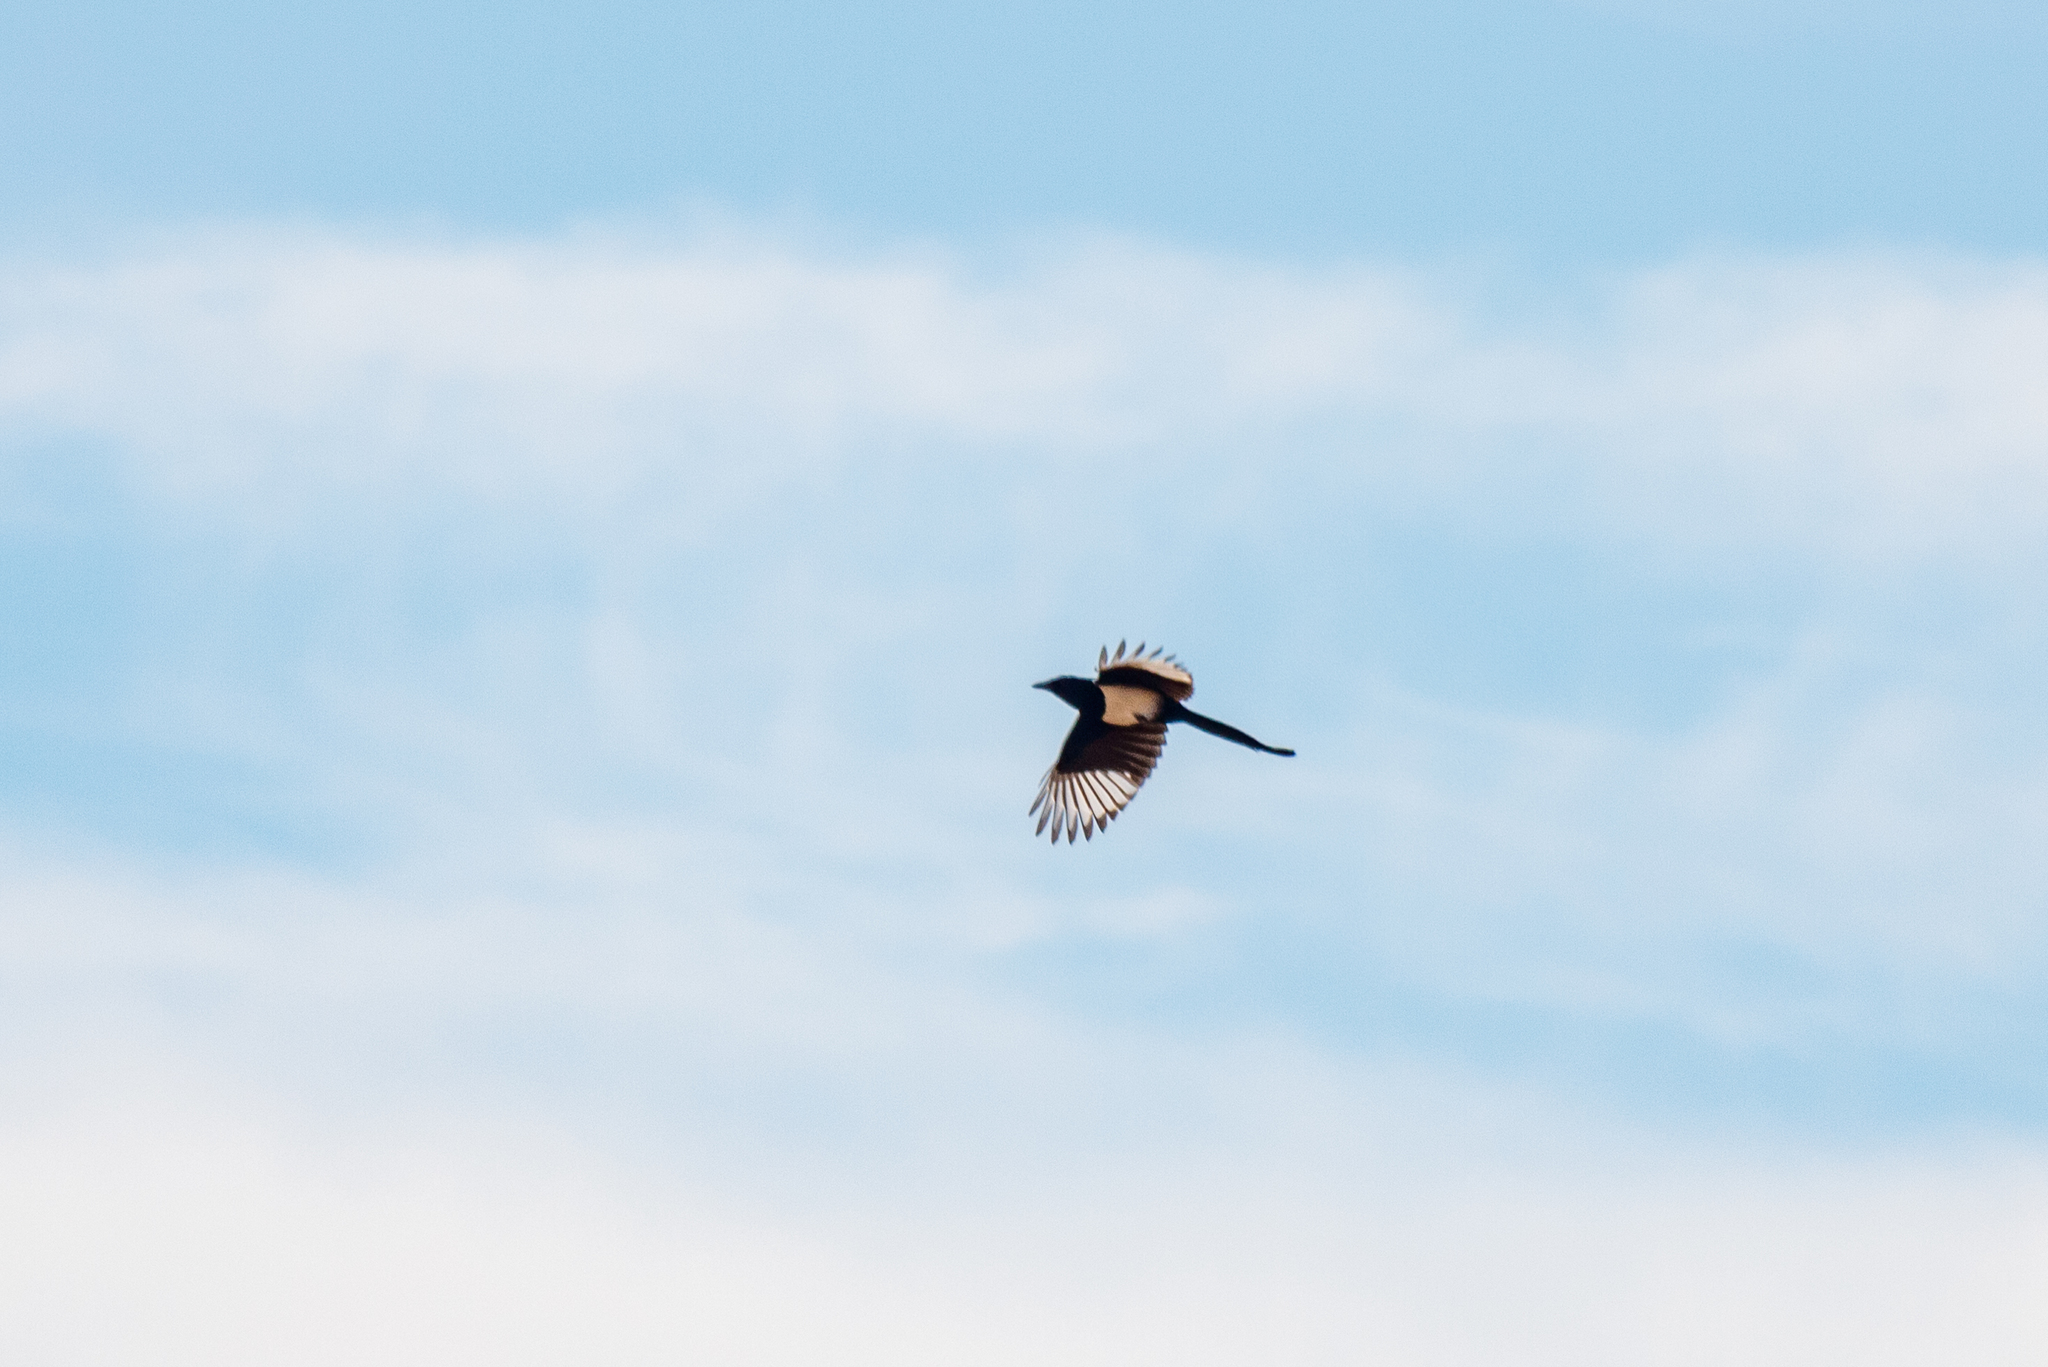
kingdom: Animalia
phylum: Chordata
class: Aves
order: Passeriformes
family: Corvidae
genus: Pica
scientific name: Pica pica
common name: Eurasian magpie
